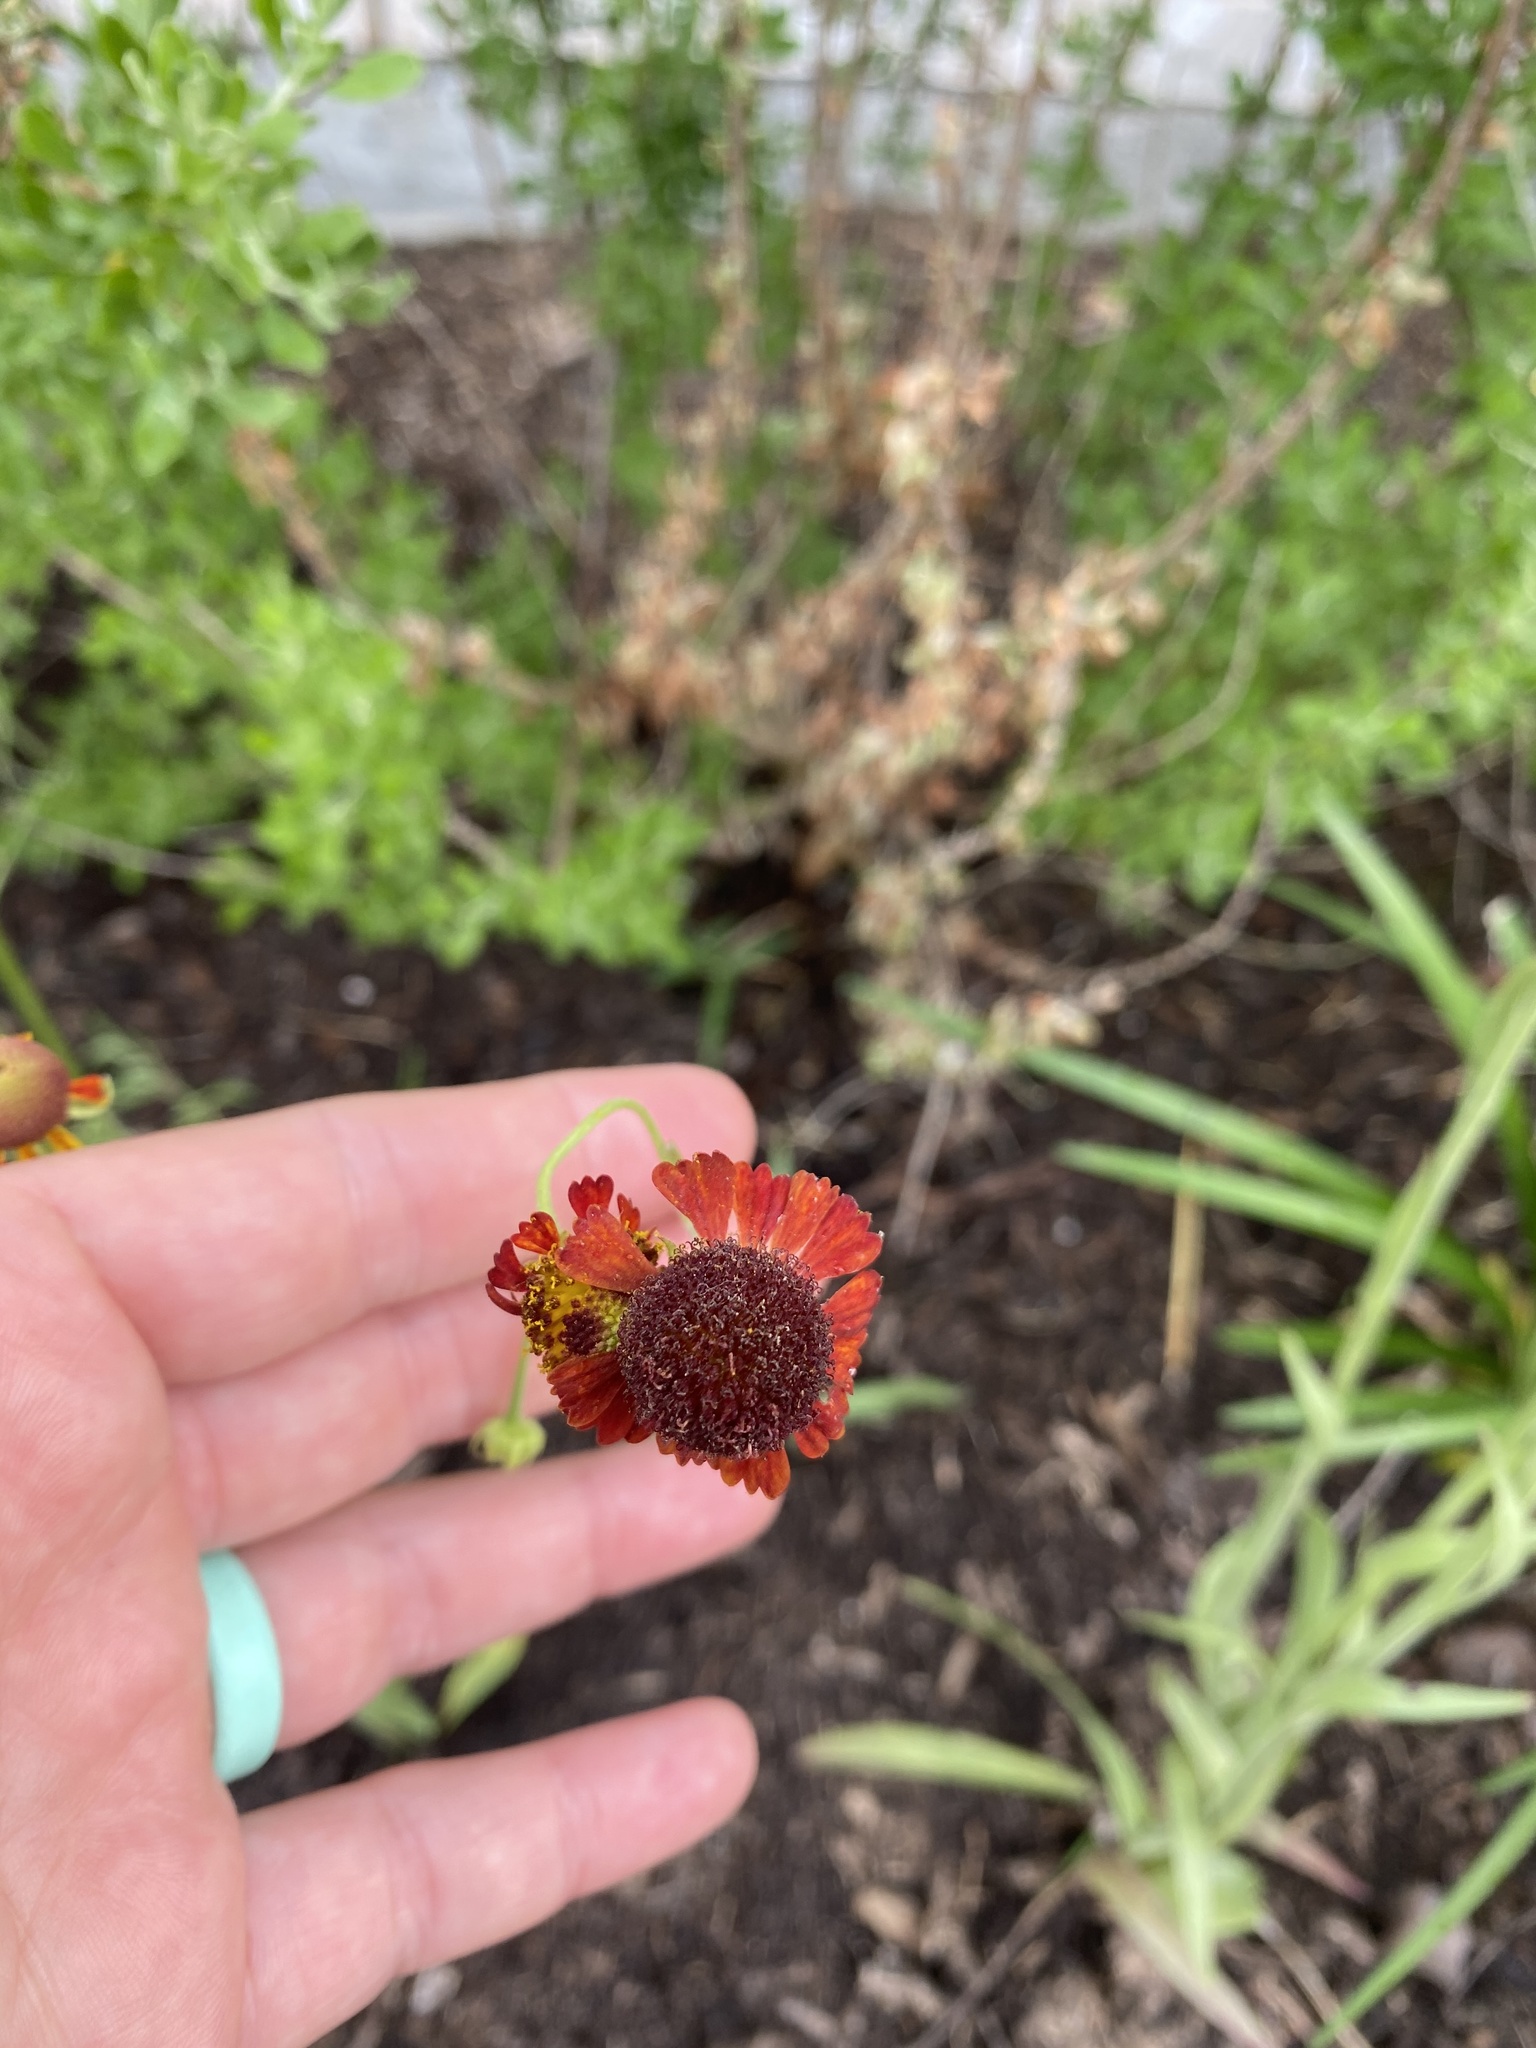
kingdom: Plantae
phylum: Tracheophyta
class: Magnoliopsida
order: Asterales
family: Asteraceae
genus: Helenium
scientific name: Helenium flexuosum
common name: Naked-flowered sneezeweed
